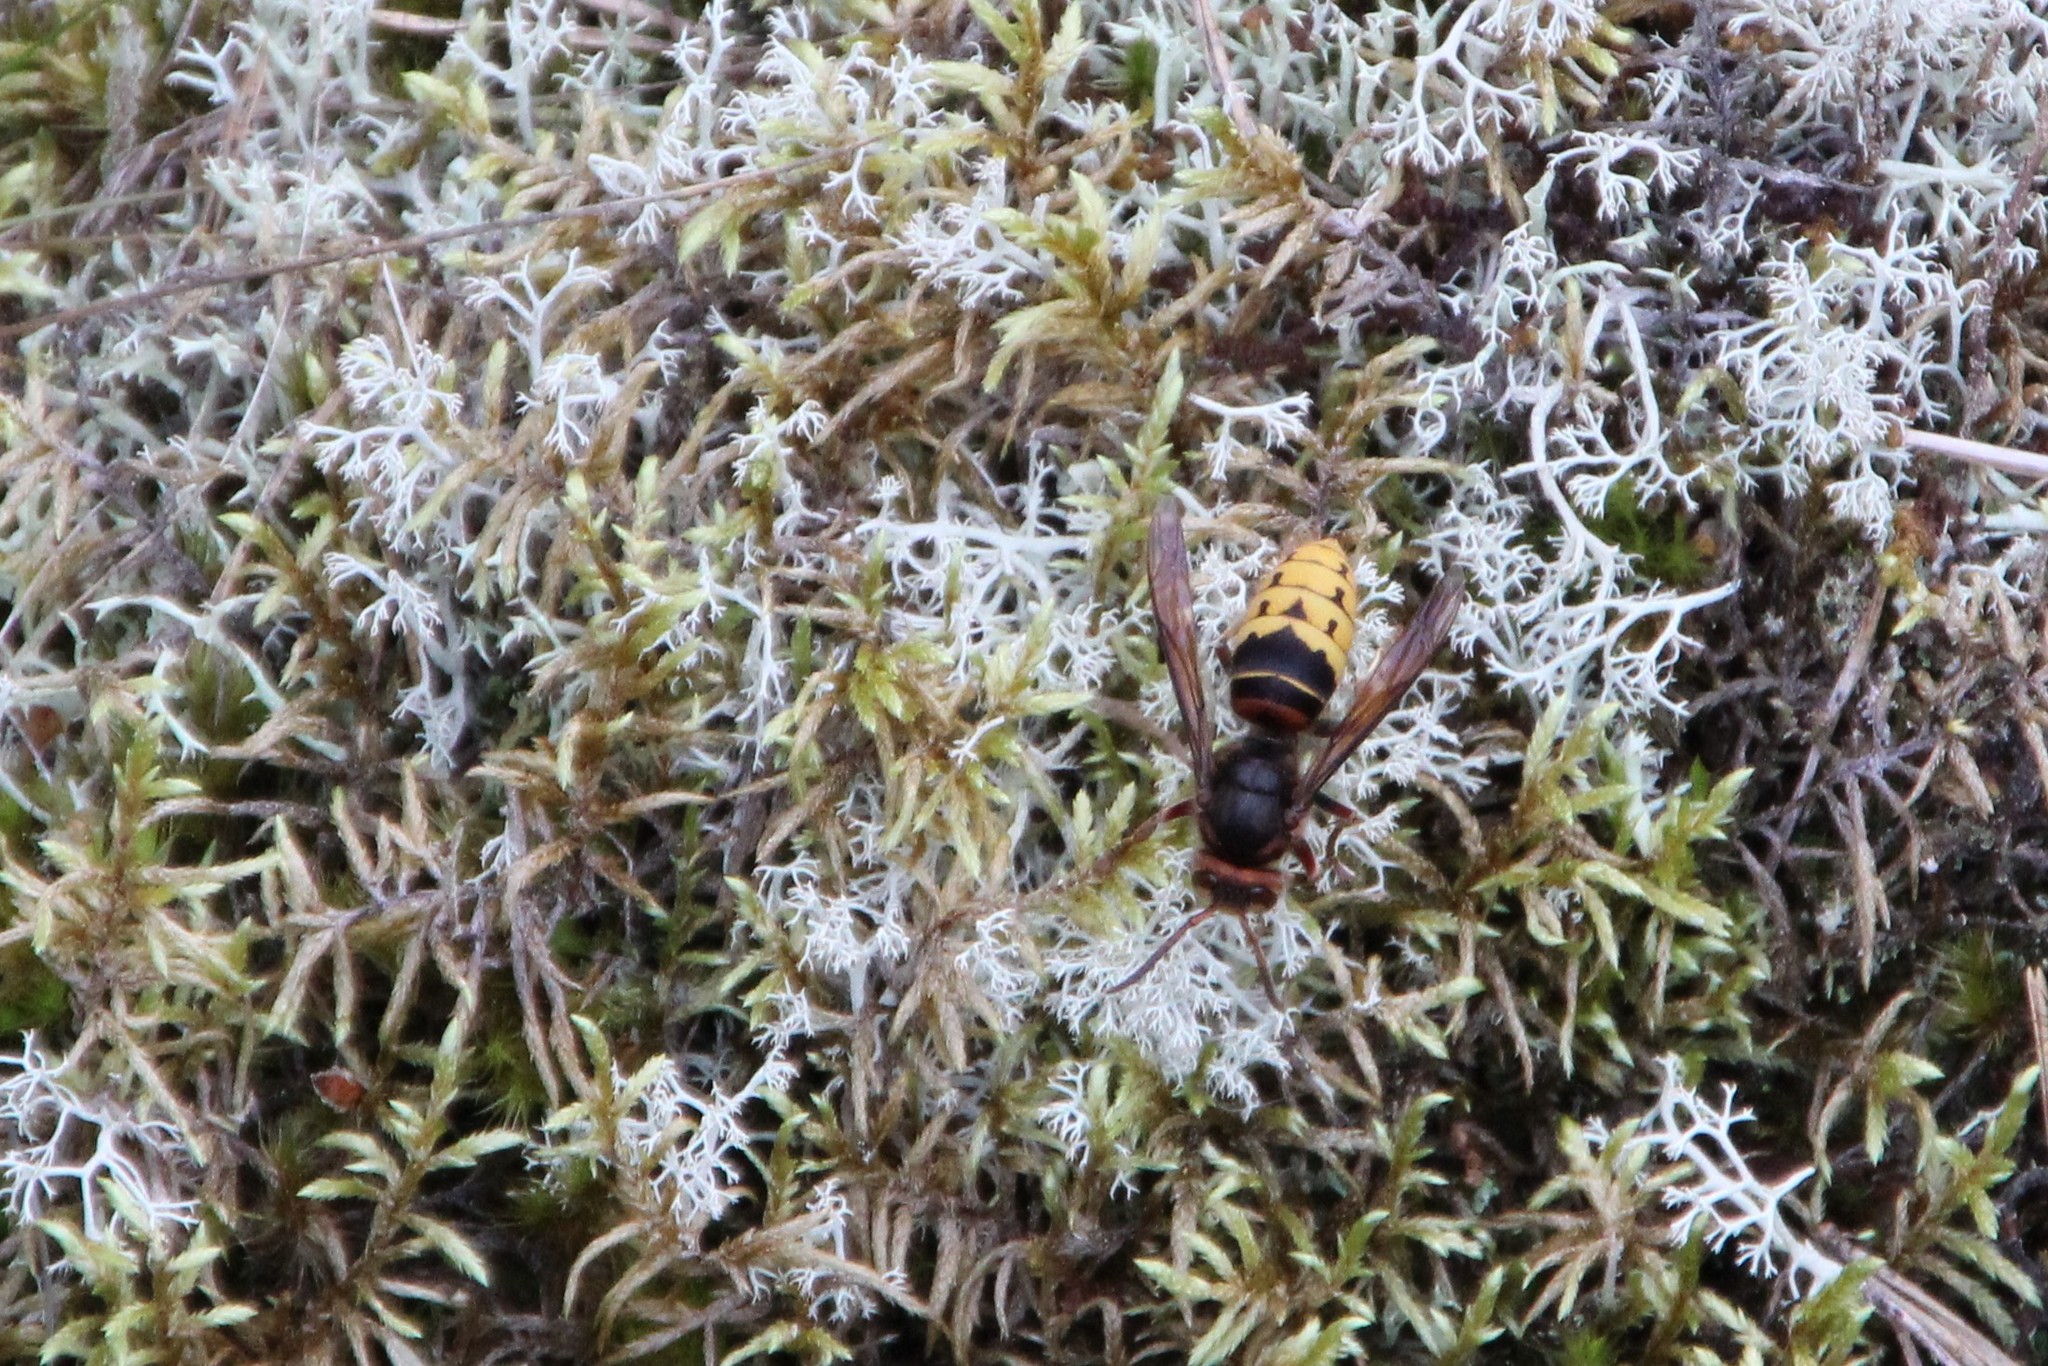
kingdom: Animalia
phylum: Arthropoda
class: Insecta
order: Hymenoptera
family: Vespidae
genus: Vespa
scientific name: Vespa crabro
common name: Hornet
